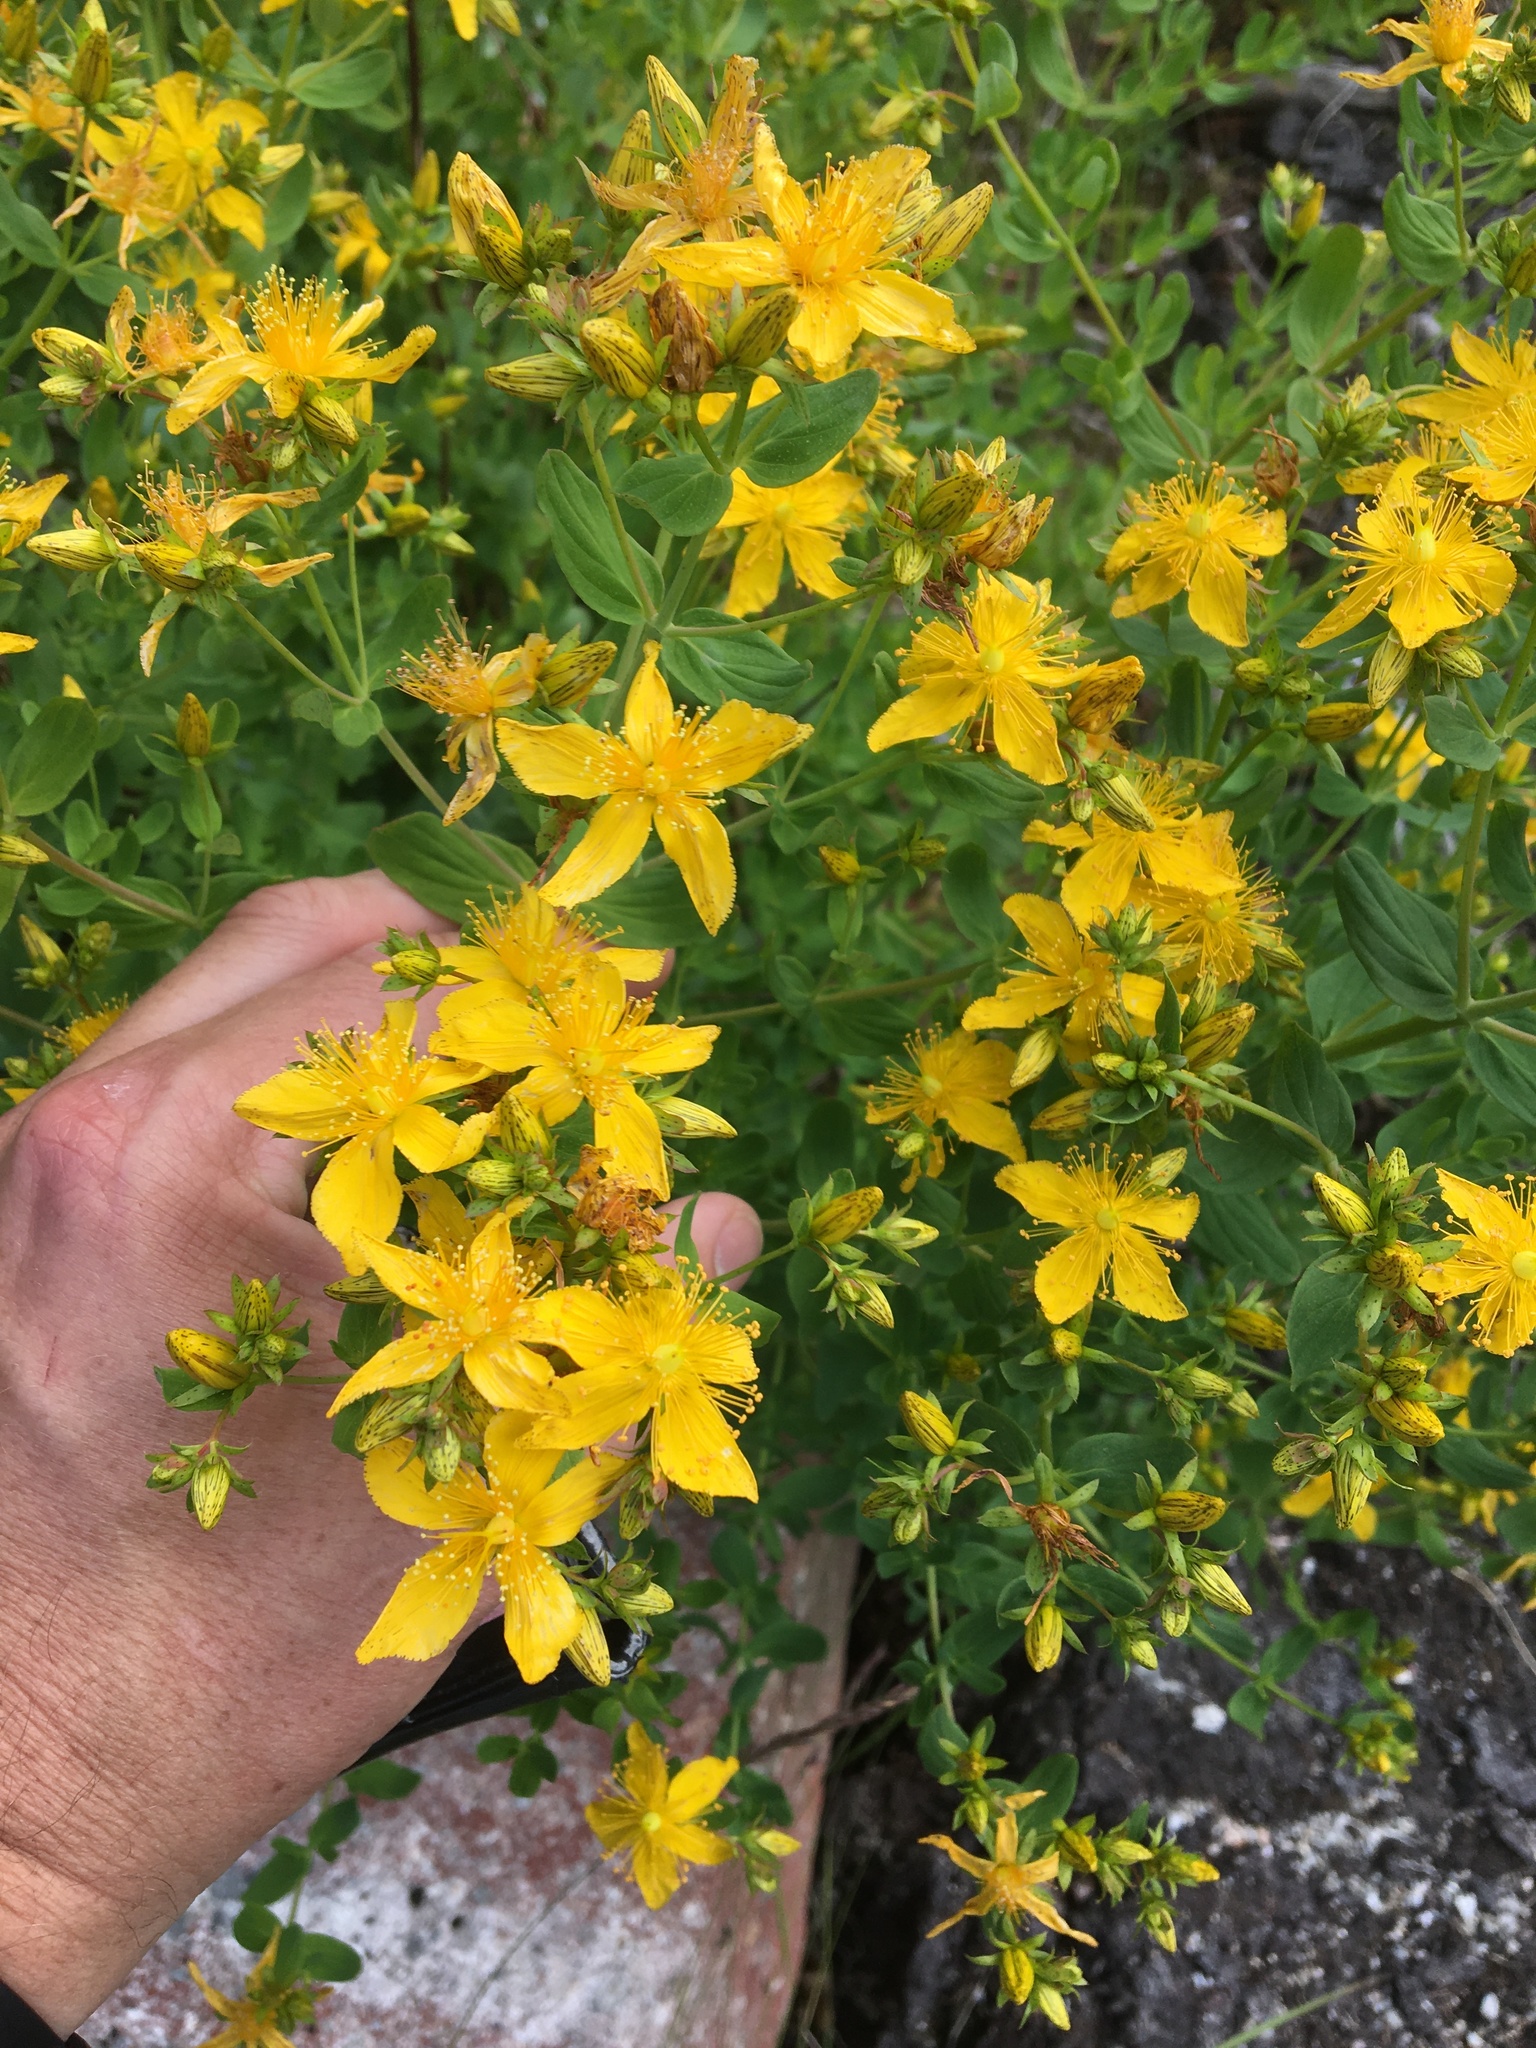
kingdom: Plantae
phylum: Tracheophyta
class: Magnoliopsida
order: Malpighiales
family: Hypericaceae
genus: Hypericum
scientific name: Hypericum perforatum
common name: Common st. johnswort
